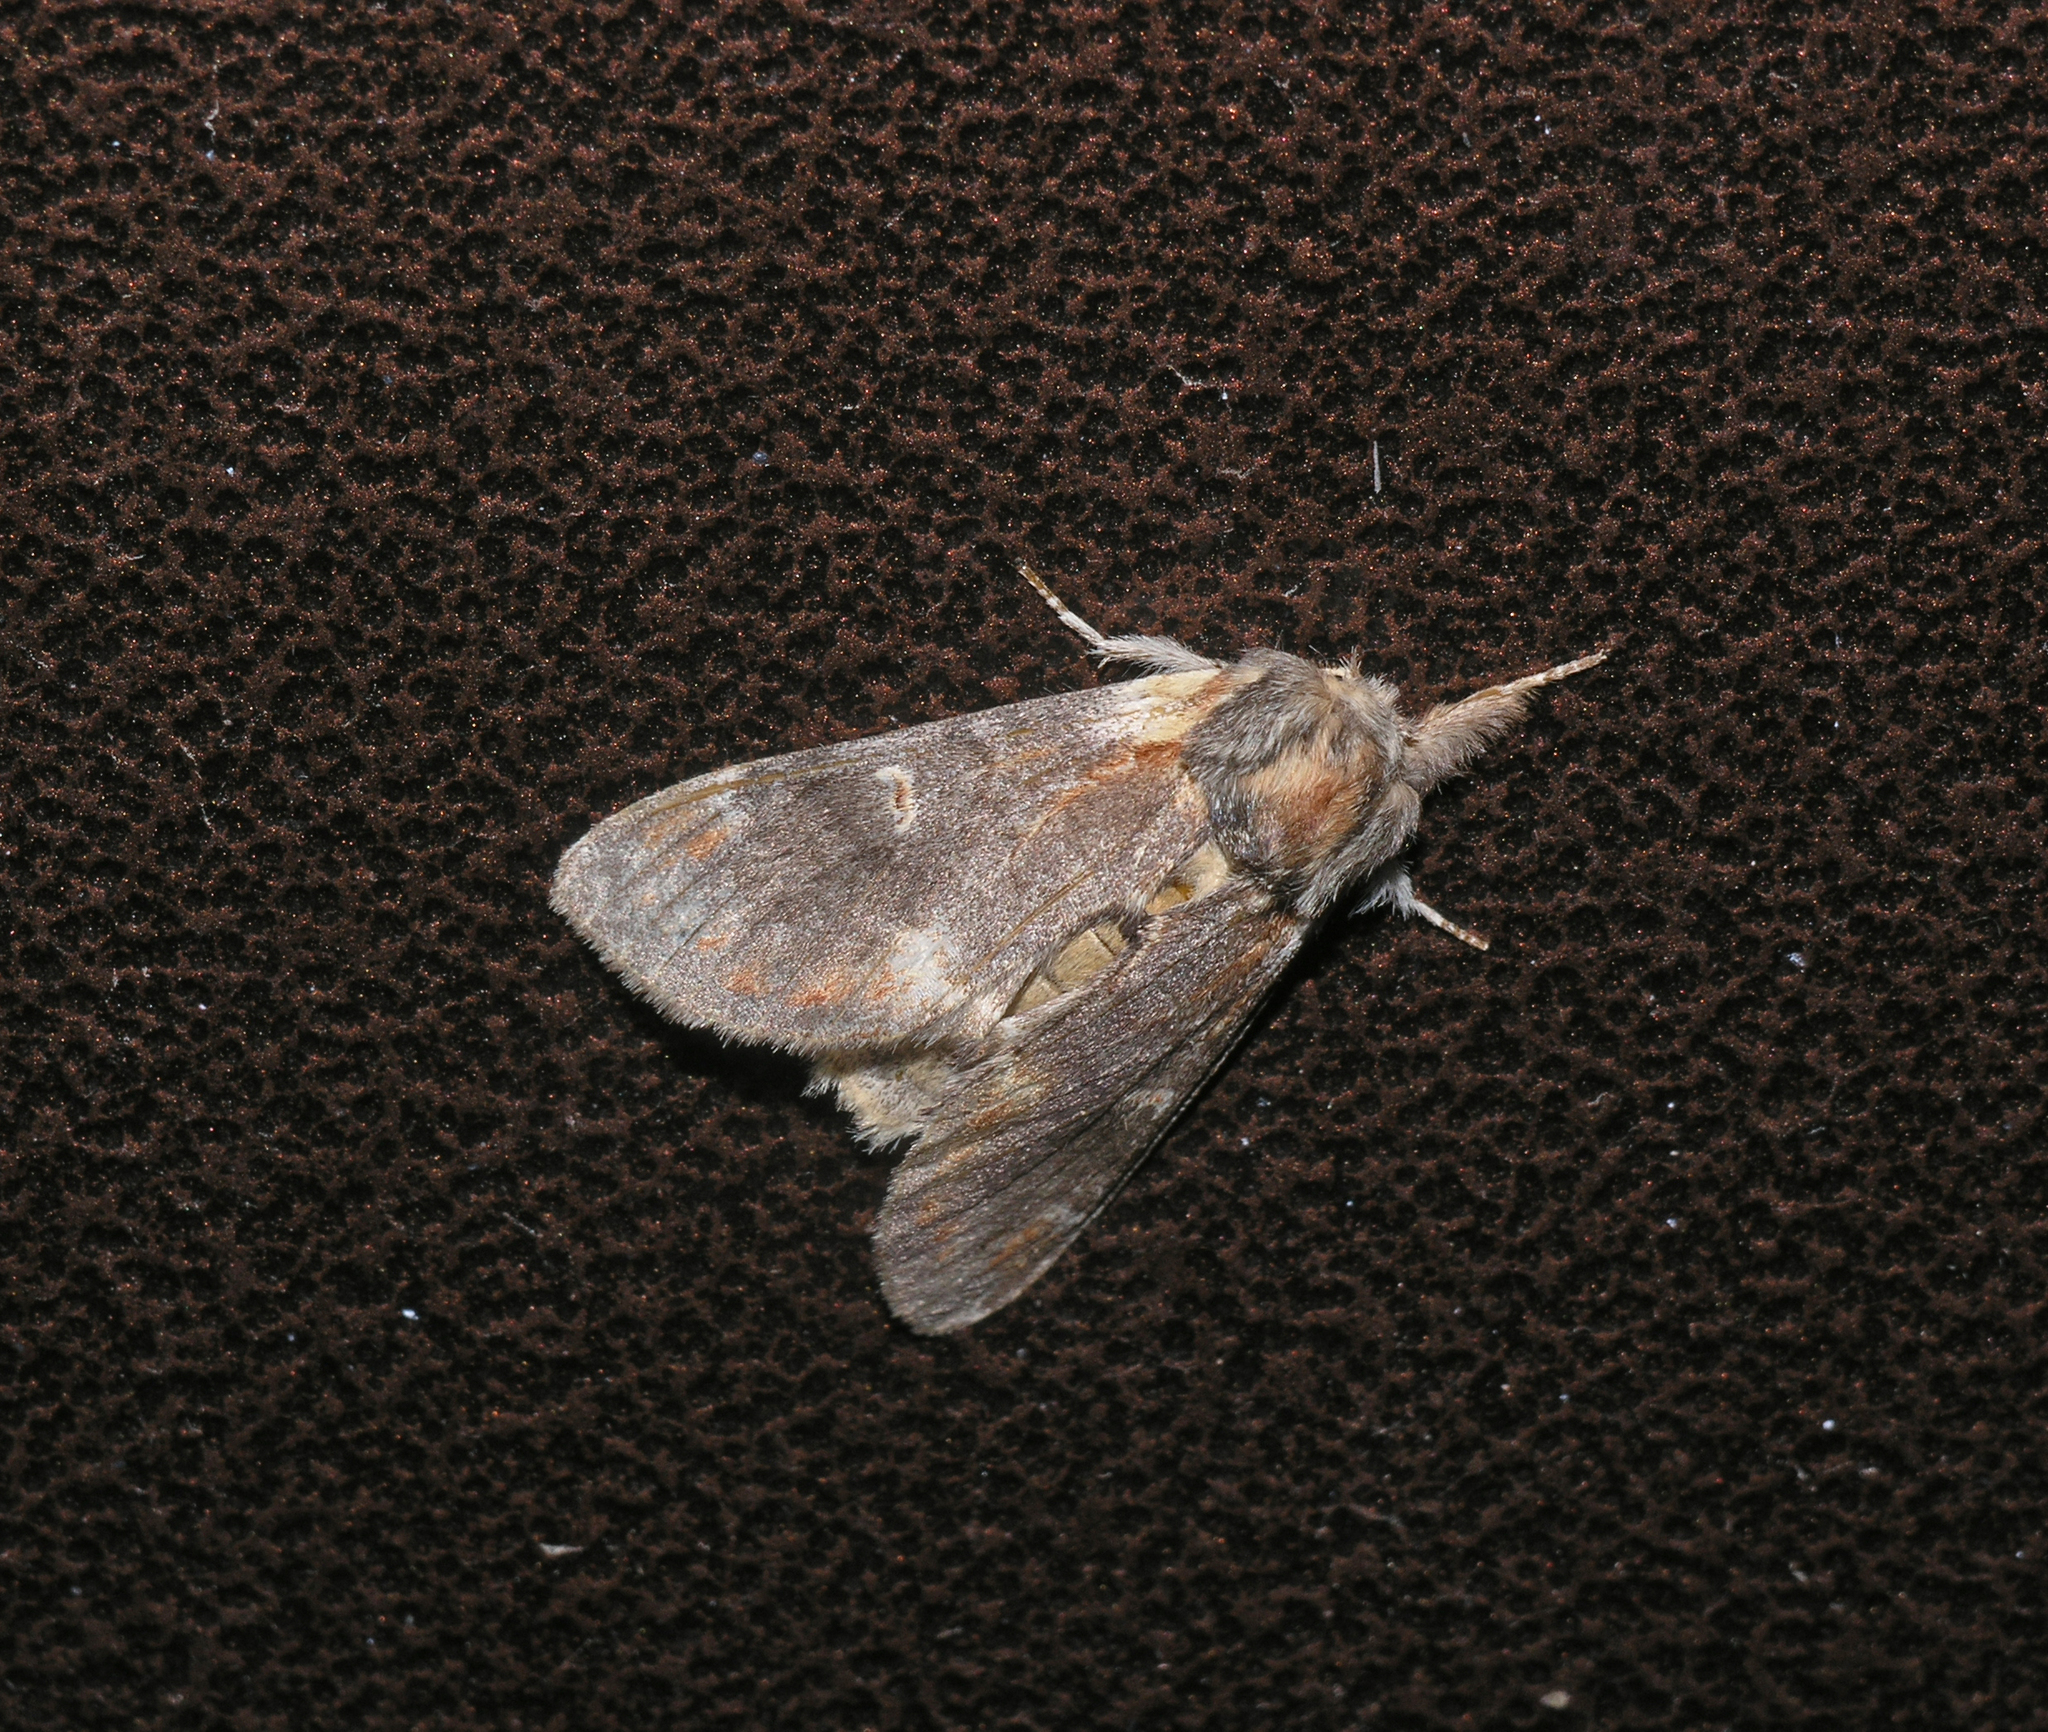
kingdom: Animalia
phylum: Arthropoda
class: Insecta
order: Lepidoptera
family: Notodontidae
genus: Notodonta
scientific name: Notodonta dromedarius
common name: Iron prominent
